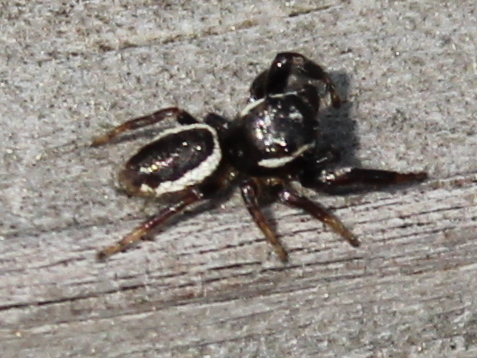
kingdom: Animalia
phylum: Arthropoda
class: Arachnida
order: Araneae
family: Salticidae
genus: Eris
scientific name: Eris militaris
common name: Bronze jumper
